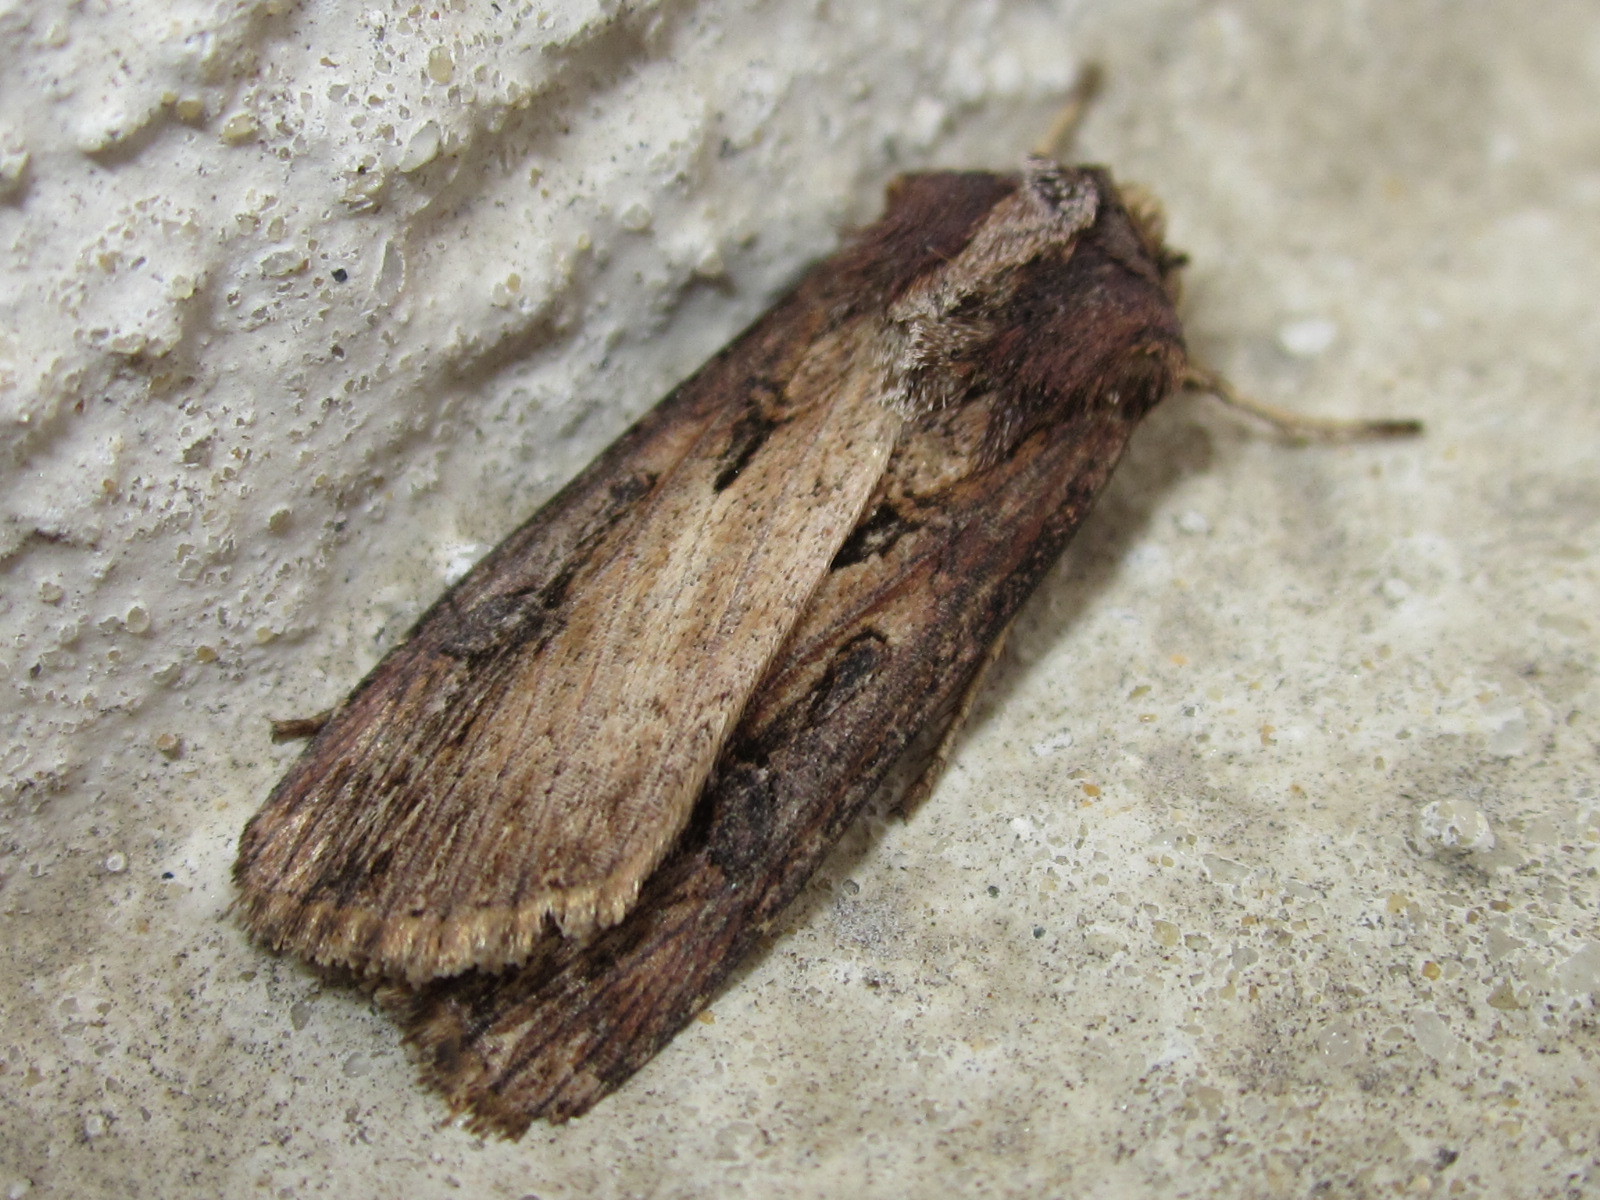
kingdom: Animalia
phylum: Arthropoda
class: Insecta
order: Lepidoptera
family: Noctuidae
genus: Agrotis
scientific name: Agrotis robusta
